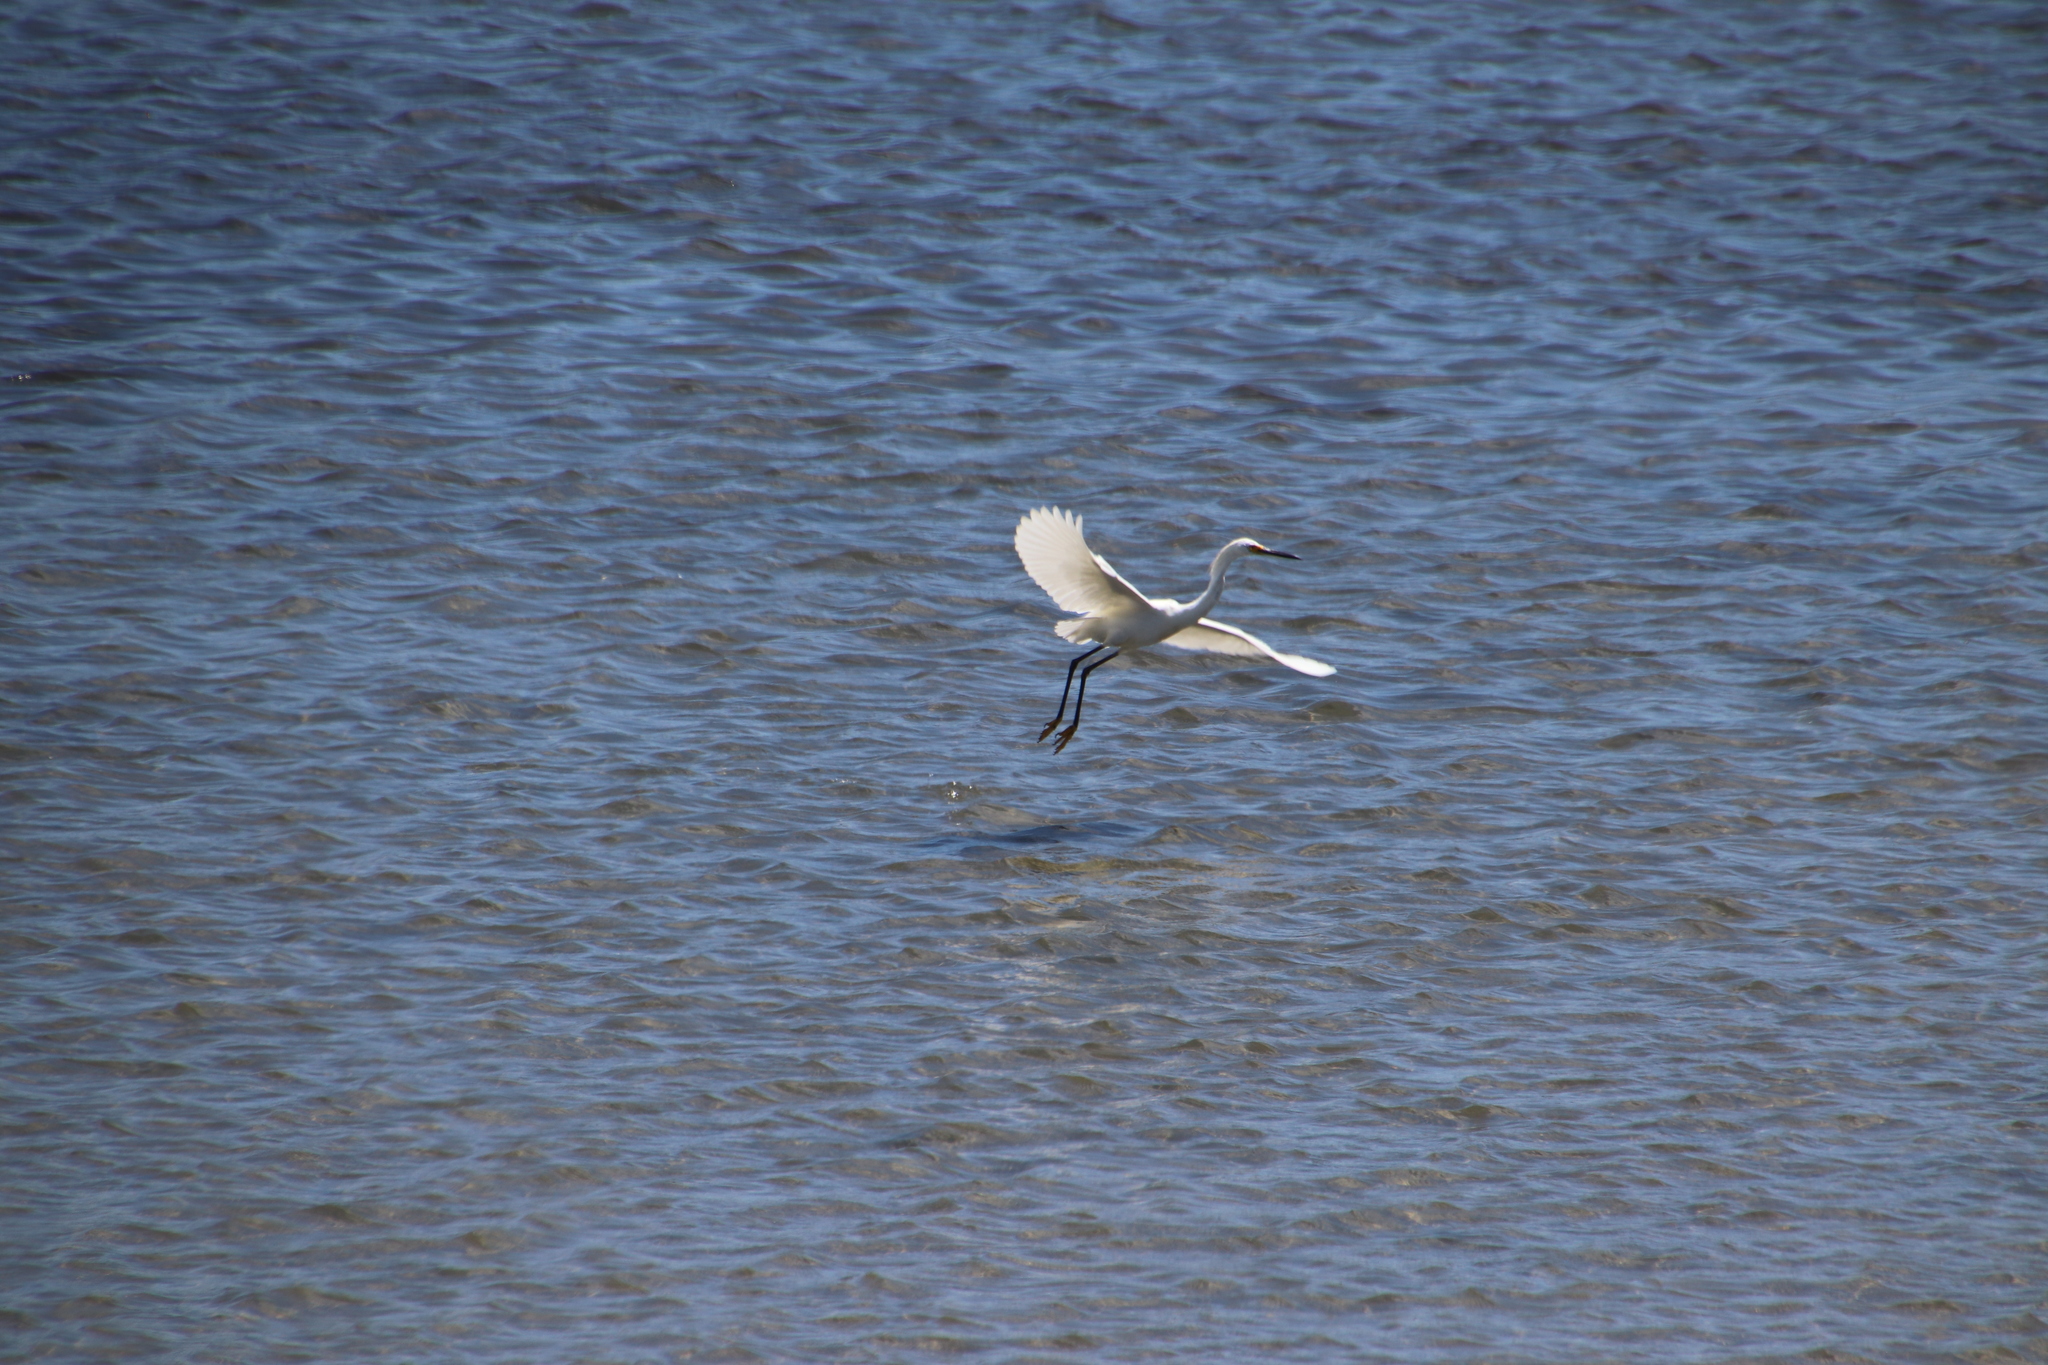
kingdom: Animalia
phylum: Chordata
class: Aves
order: Pelecaniformes
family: Ardeidae
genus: Egretta
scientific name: Egretta thula
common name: Snowy egret
